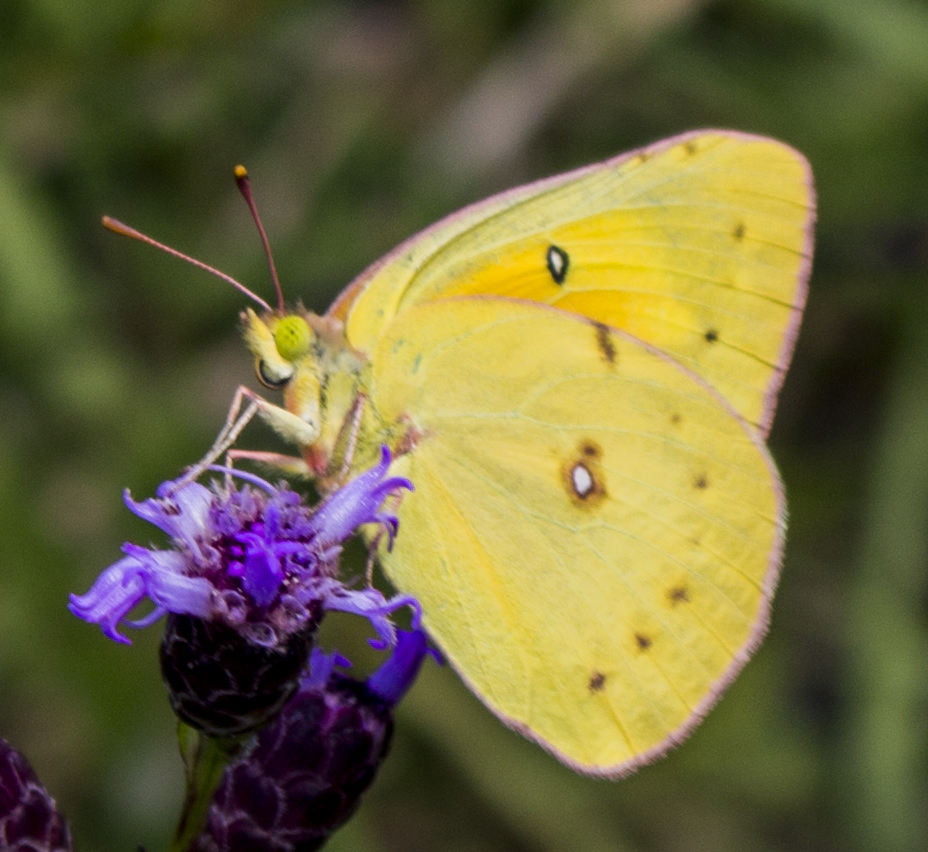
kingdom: Animalia
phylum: Arthropoda
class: Insecta
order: Lepidoptera
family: Pieridae
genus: Colias
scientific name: Colias eurytheme
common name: Alfalfa butterfly
